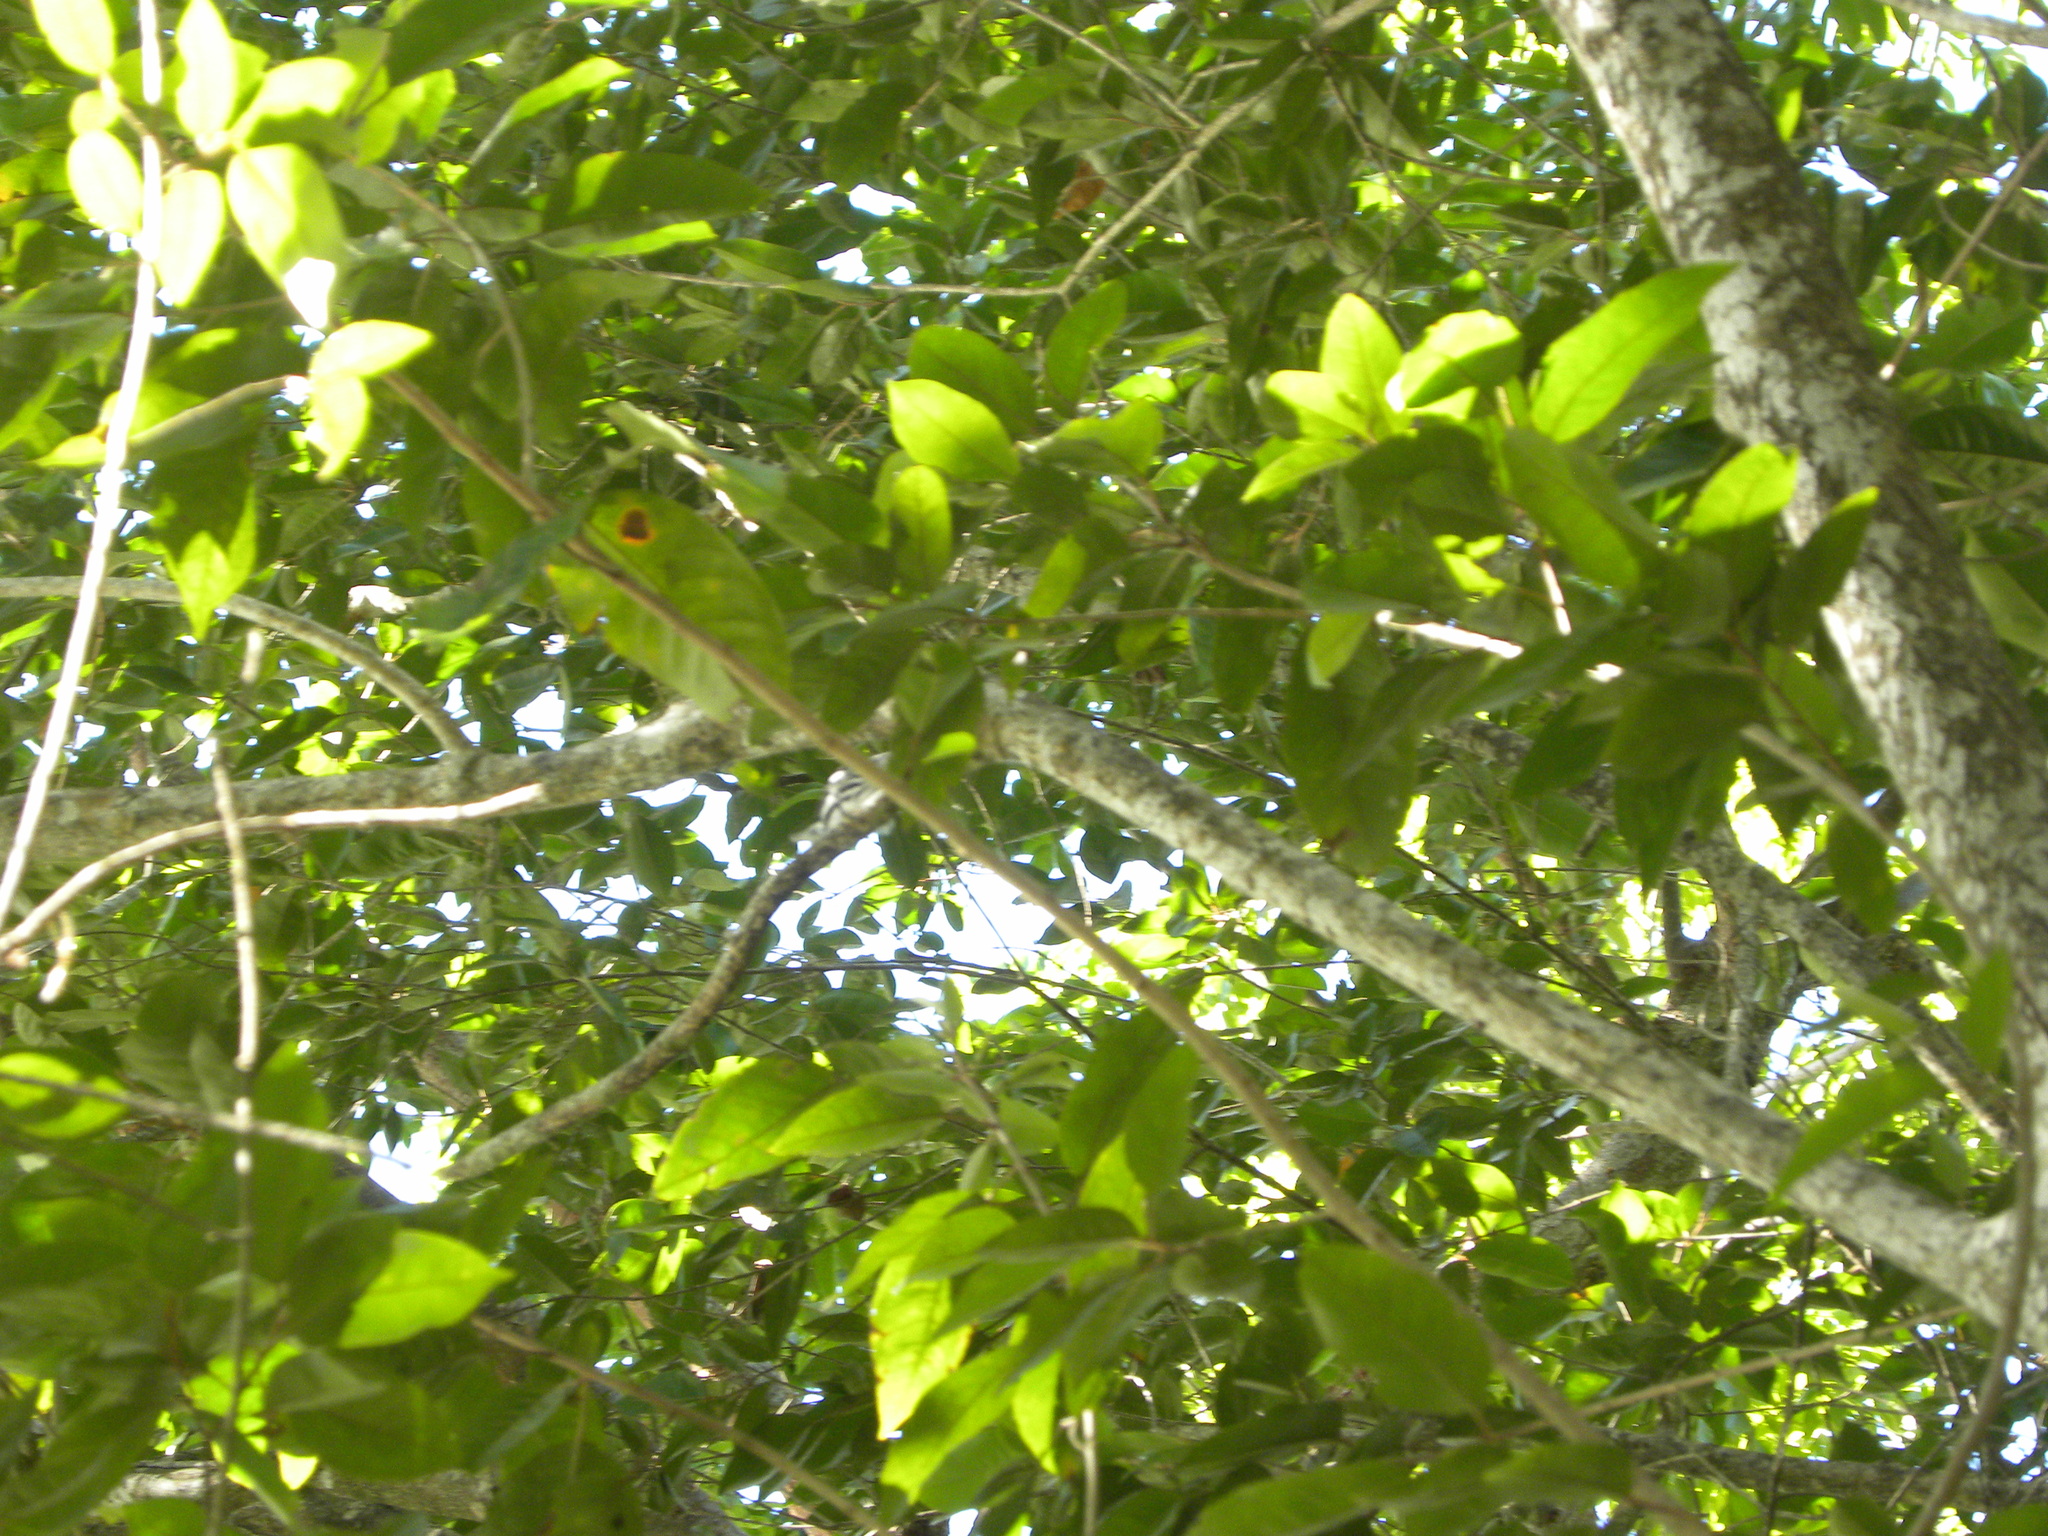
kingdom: Animalia
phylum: Chordata
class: Aves
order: Passeriformes
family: Parulidae
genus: Mniotilta
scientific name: Mniotilta varia
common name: Black-and-white warbler
